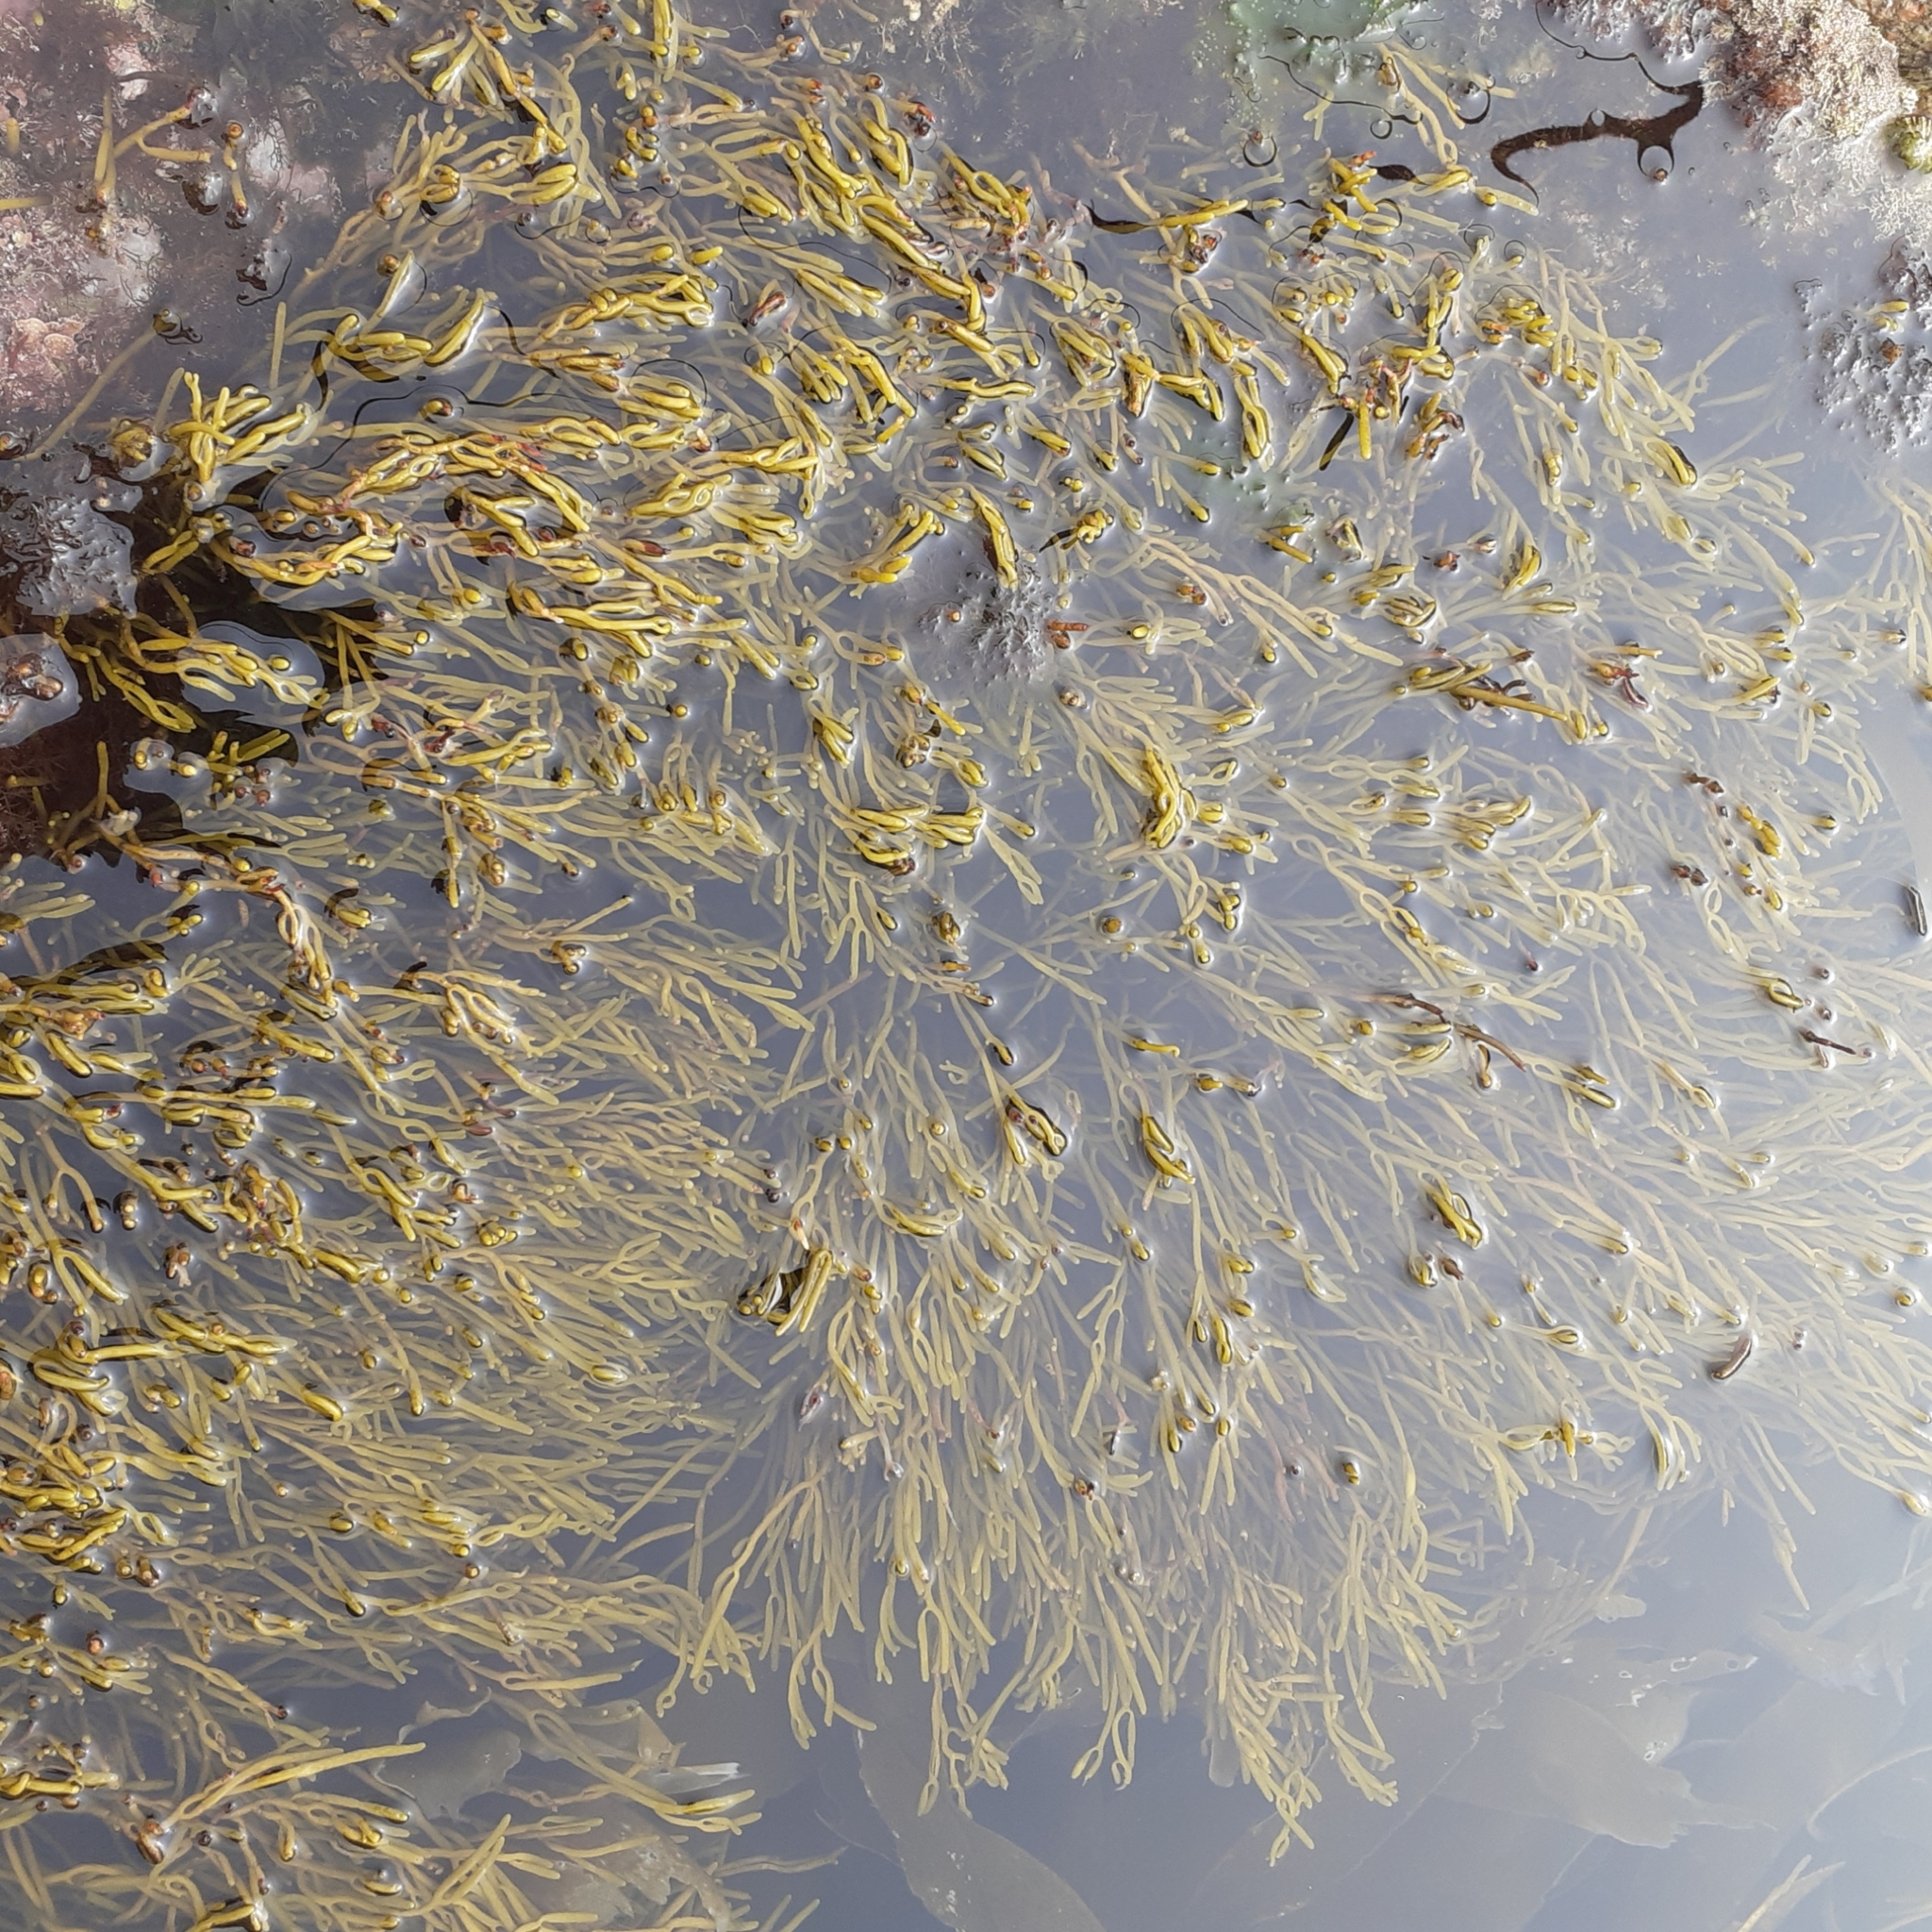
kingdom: Chromista
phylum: Ochrophyta
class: Phaeophyceae
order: Fucales
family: Sargassaceae
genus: Bifurcaria
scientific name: Bifurcaria bifurcata
